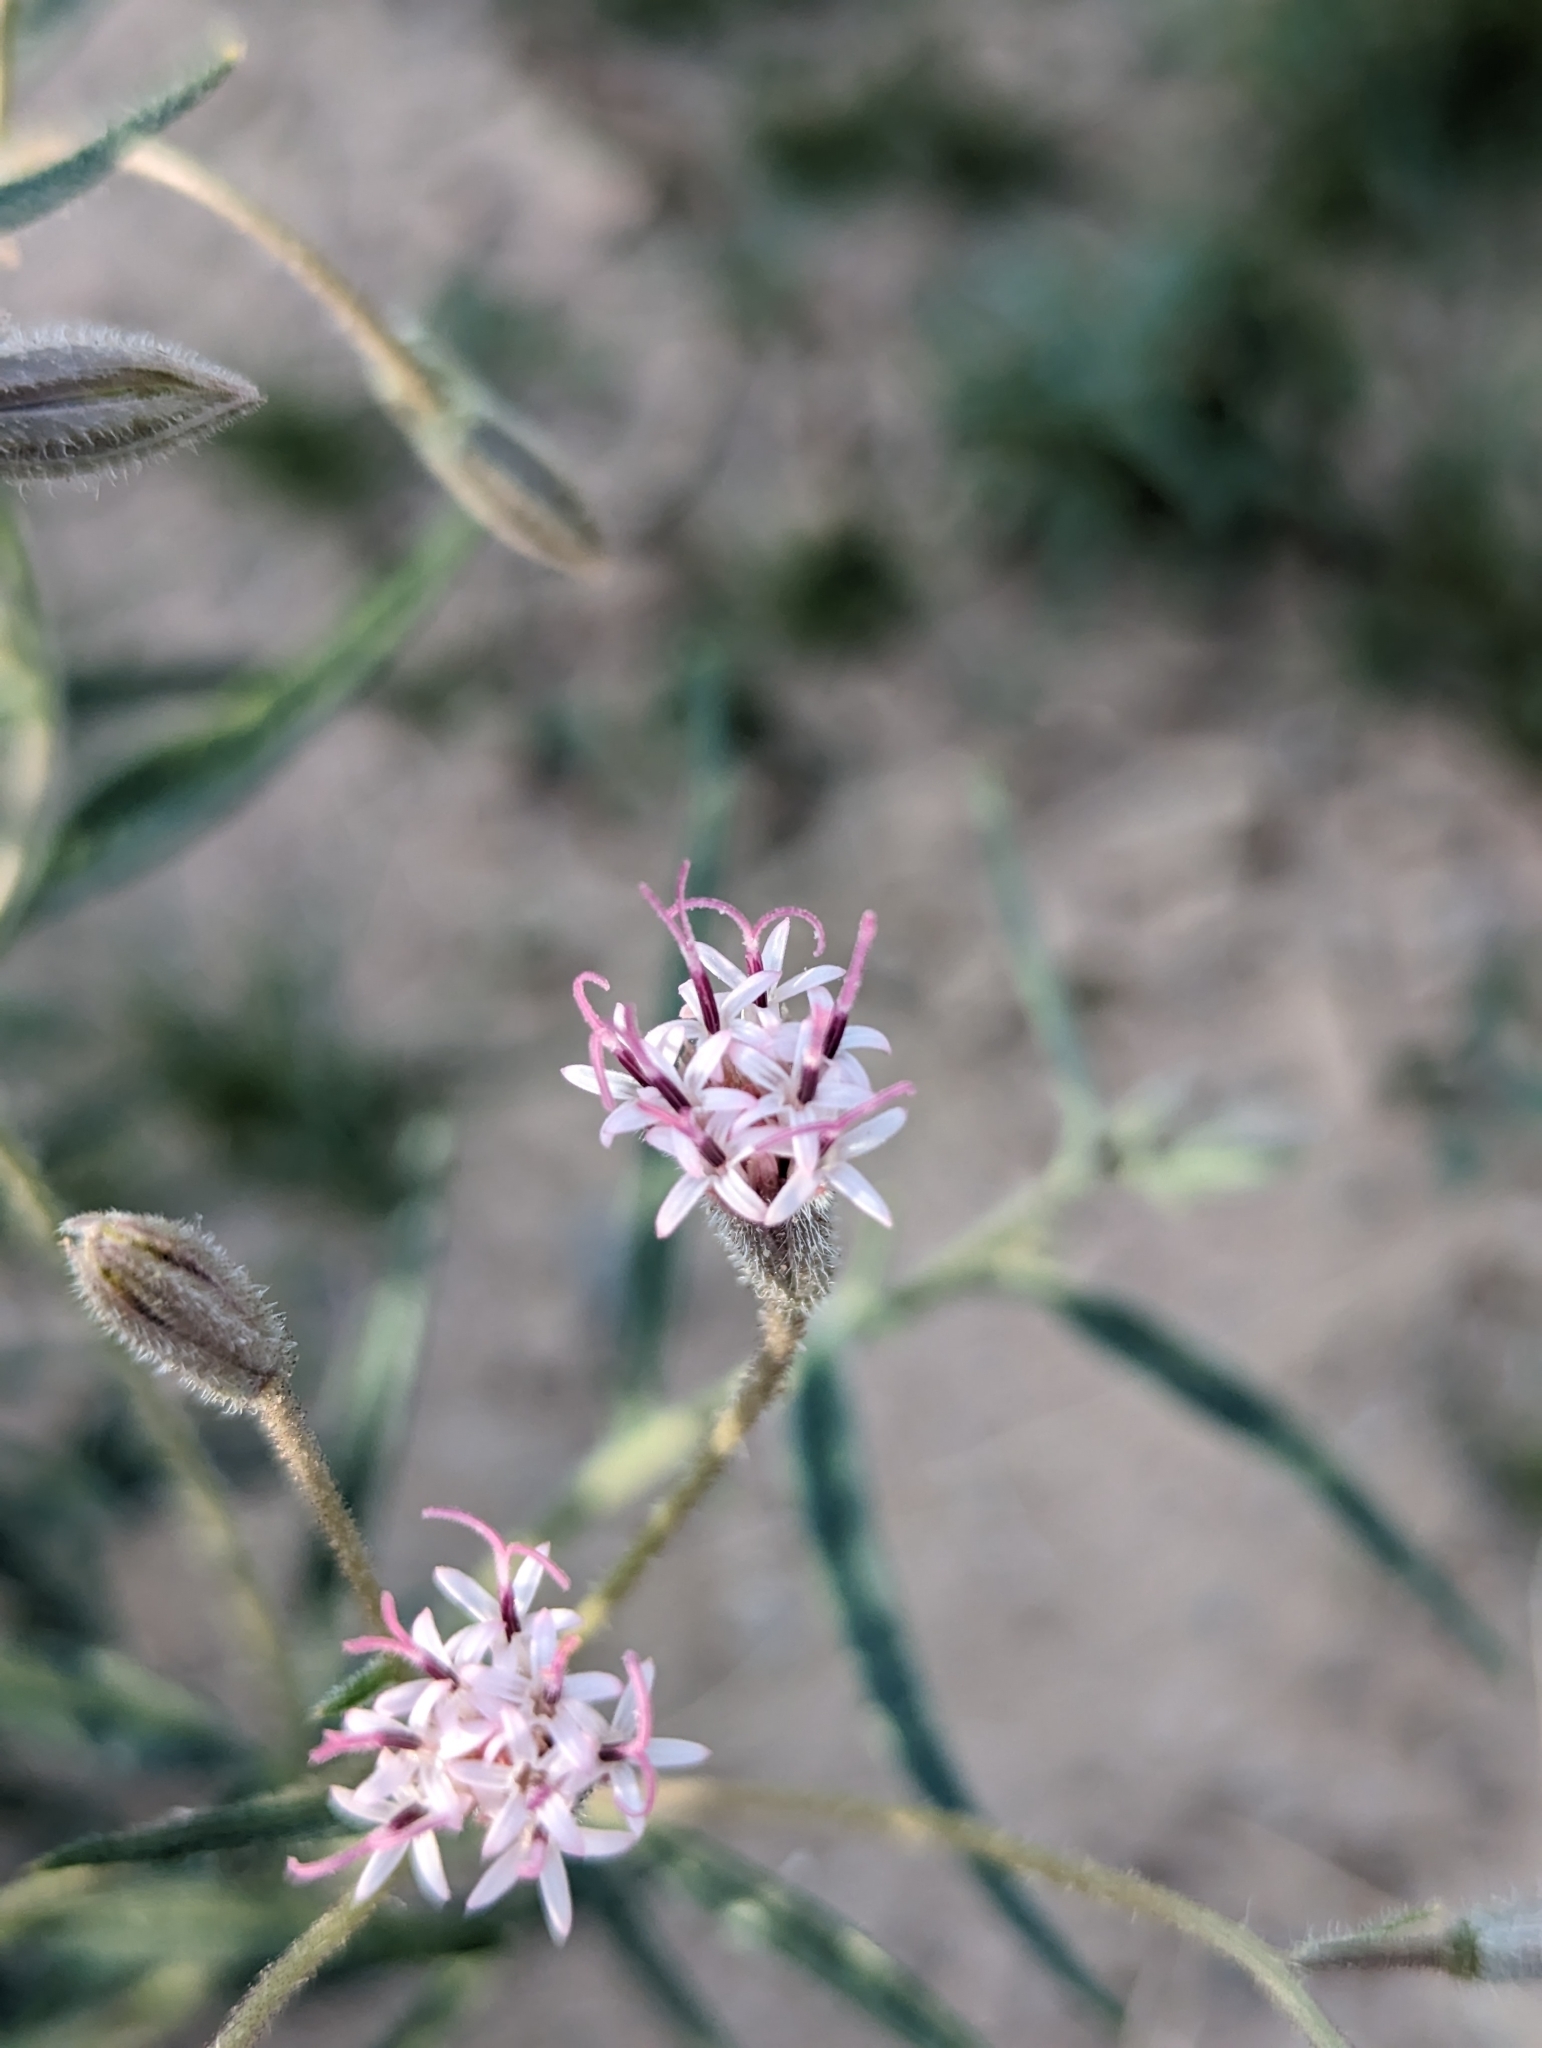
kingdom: Plantae
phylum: Tracheophyta
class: Magnoliopsida
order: Asterales
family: Asteraceae
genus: Palafoxia
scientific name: Palafoxia arida
